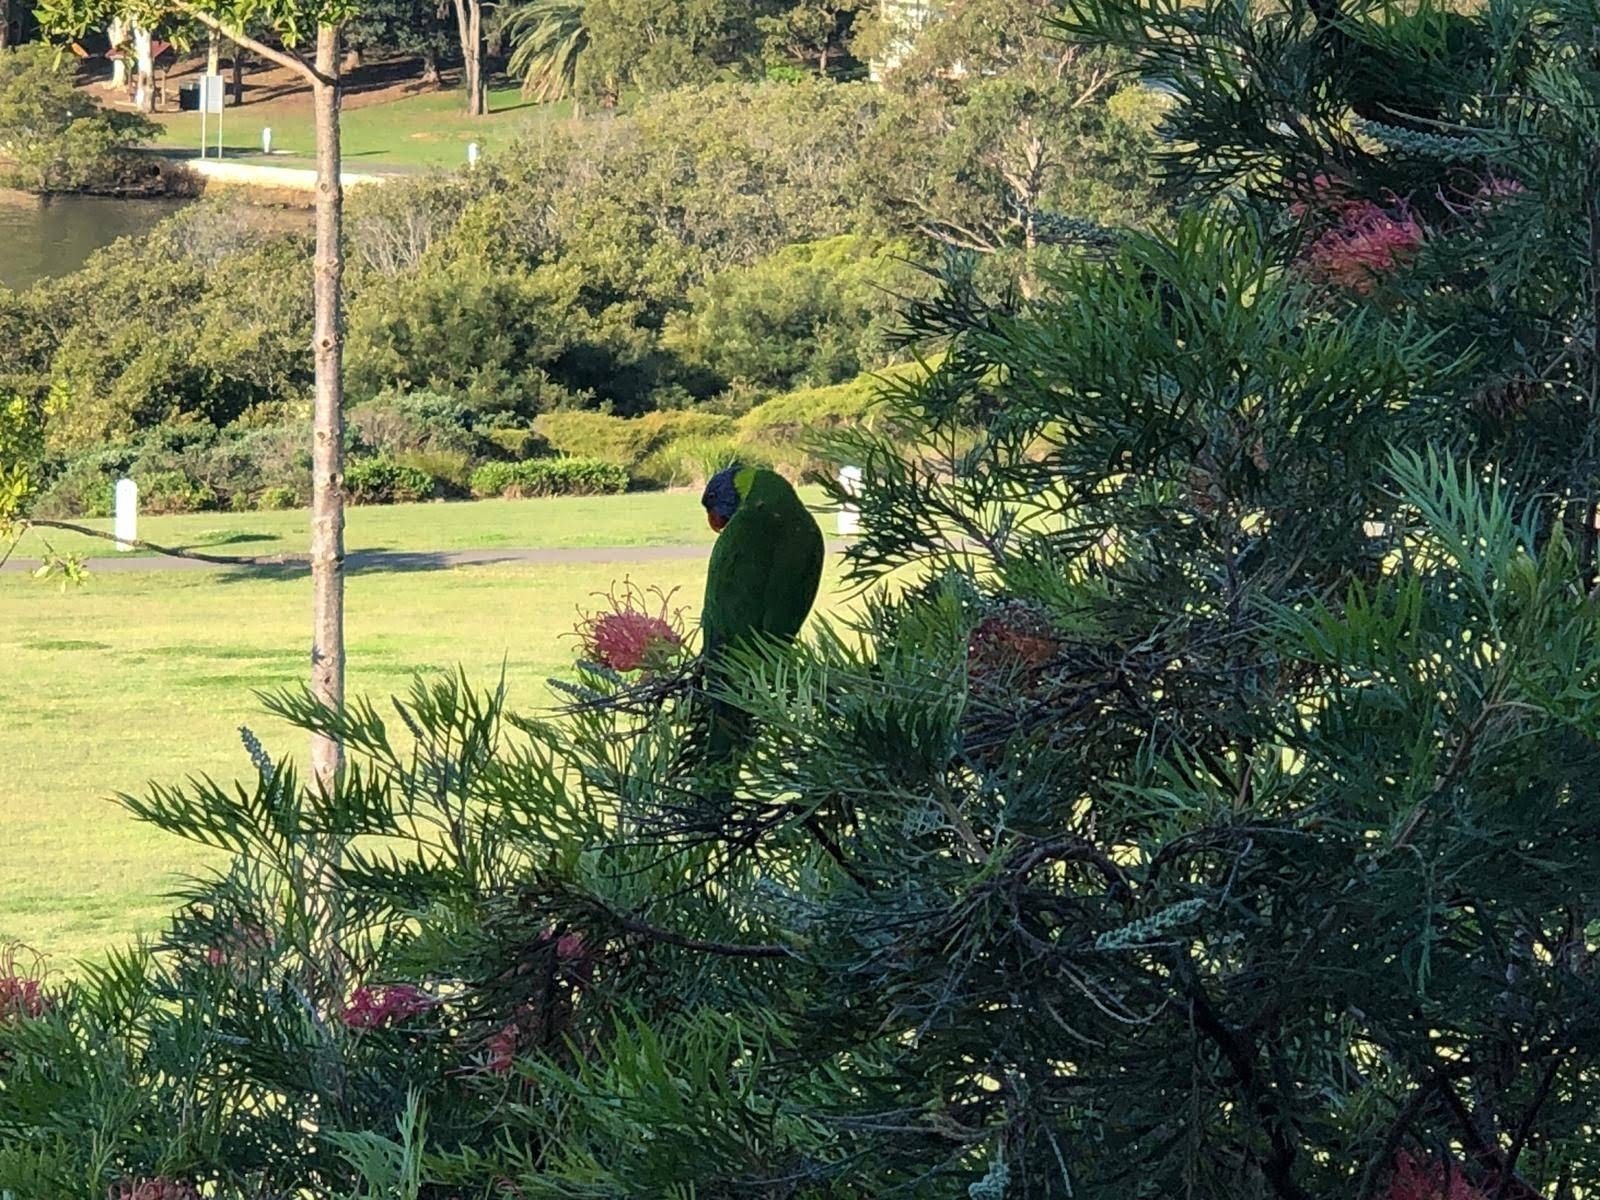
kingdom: Animalia
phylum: Chordata
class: Aves
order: Psittaciformes
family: Psittacidae
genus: Trichoglossus
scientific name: Trichoglossus haematodus
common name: Coconut lorikeet
